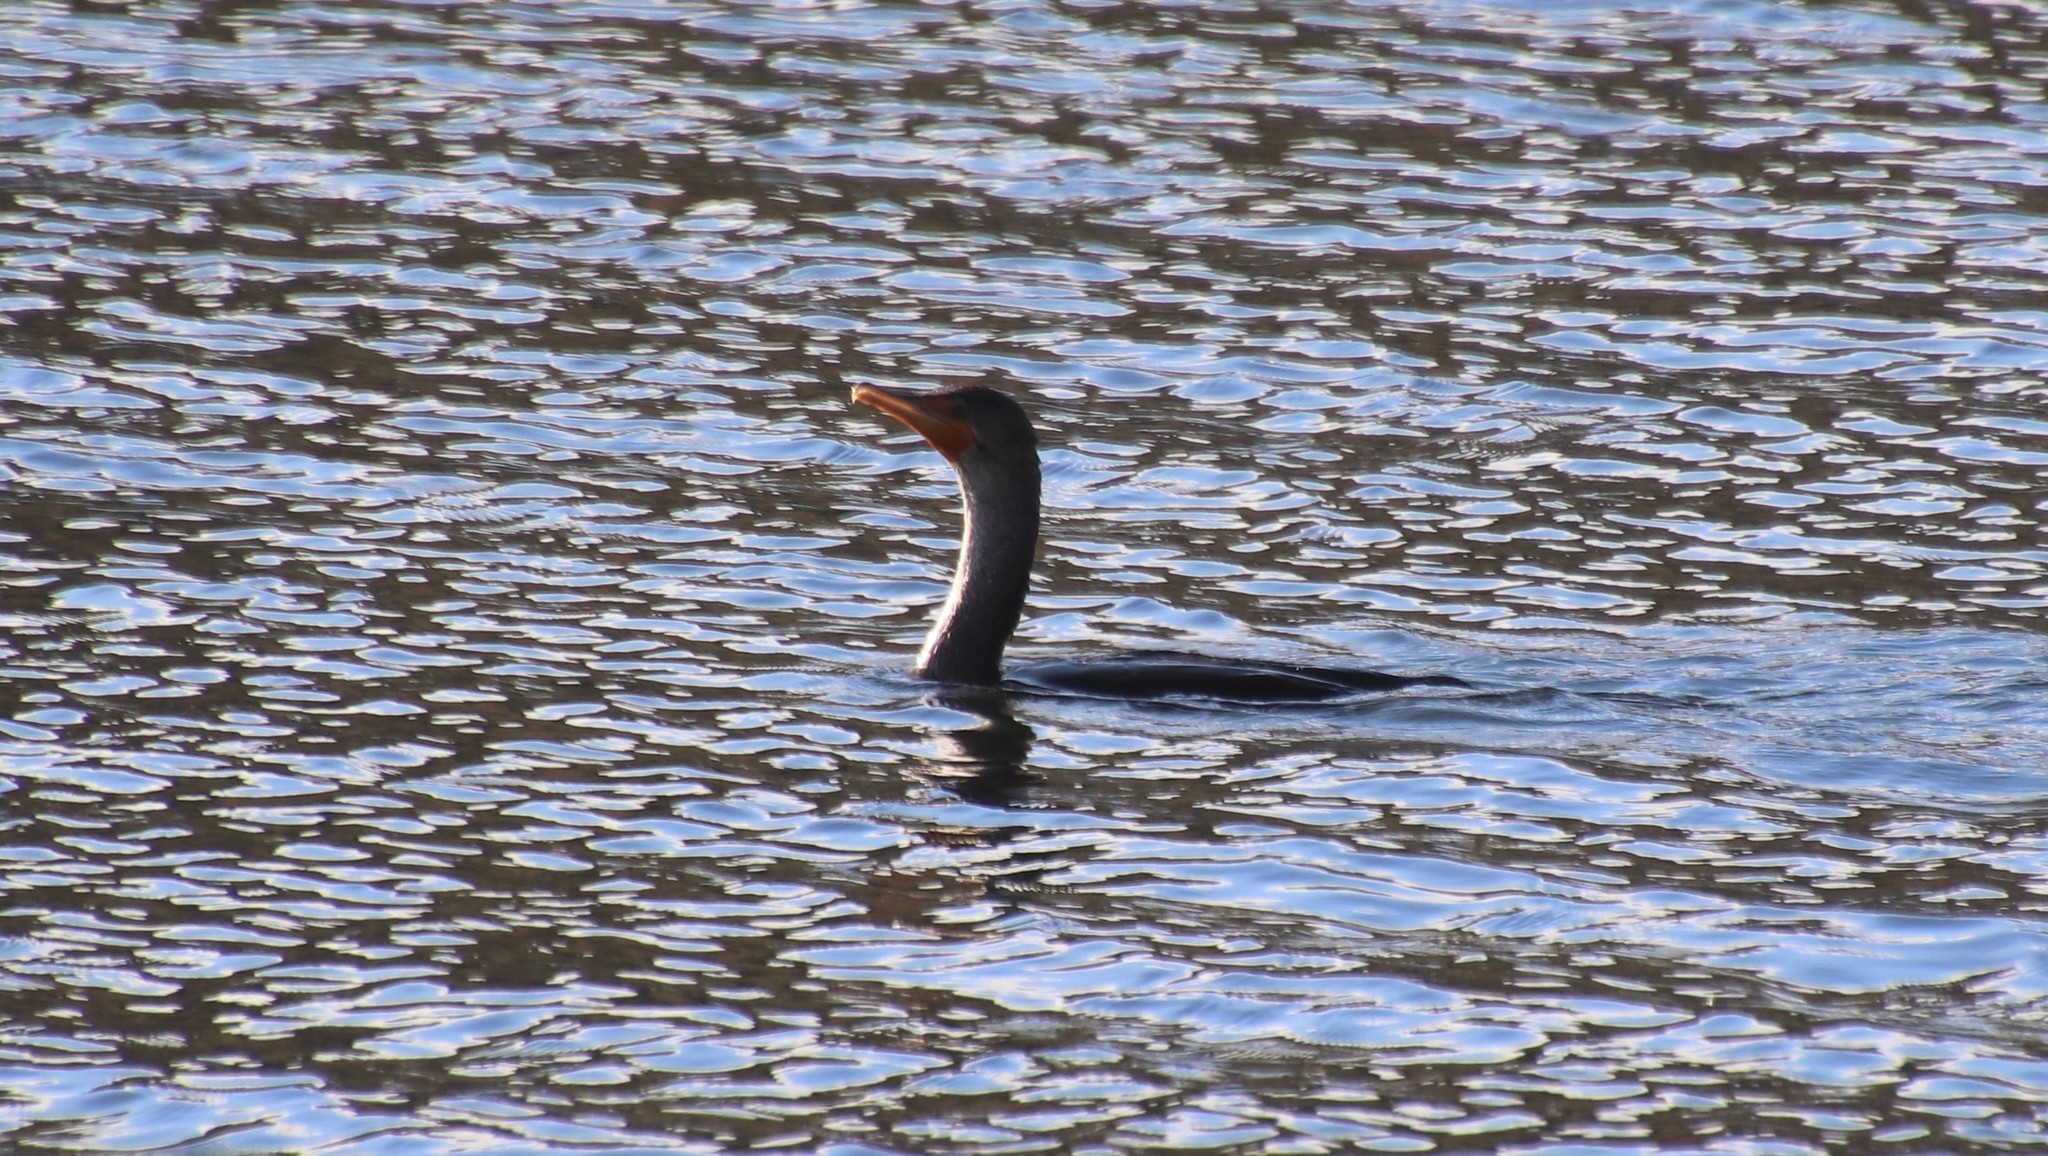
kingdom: Animalia
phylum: Chordata
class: Aves
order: Suliformes
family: Phalacrocoracidae
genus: Phalacrocorax
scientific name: Phalacrocorax auritus
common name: Double-crested cormorant
